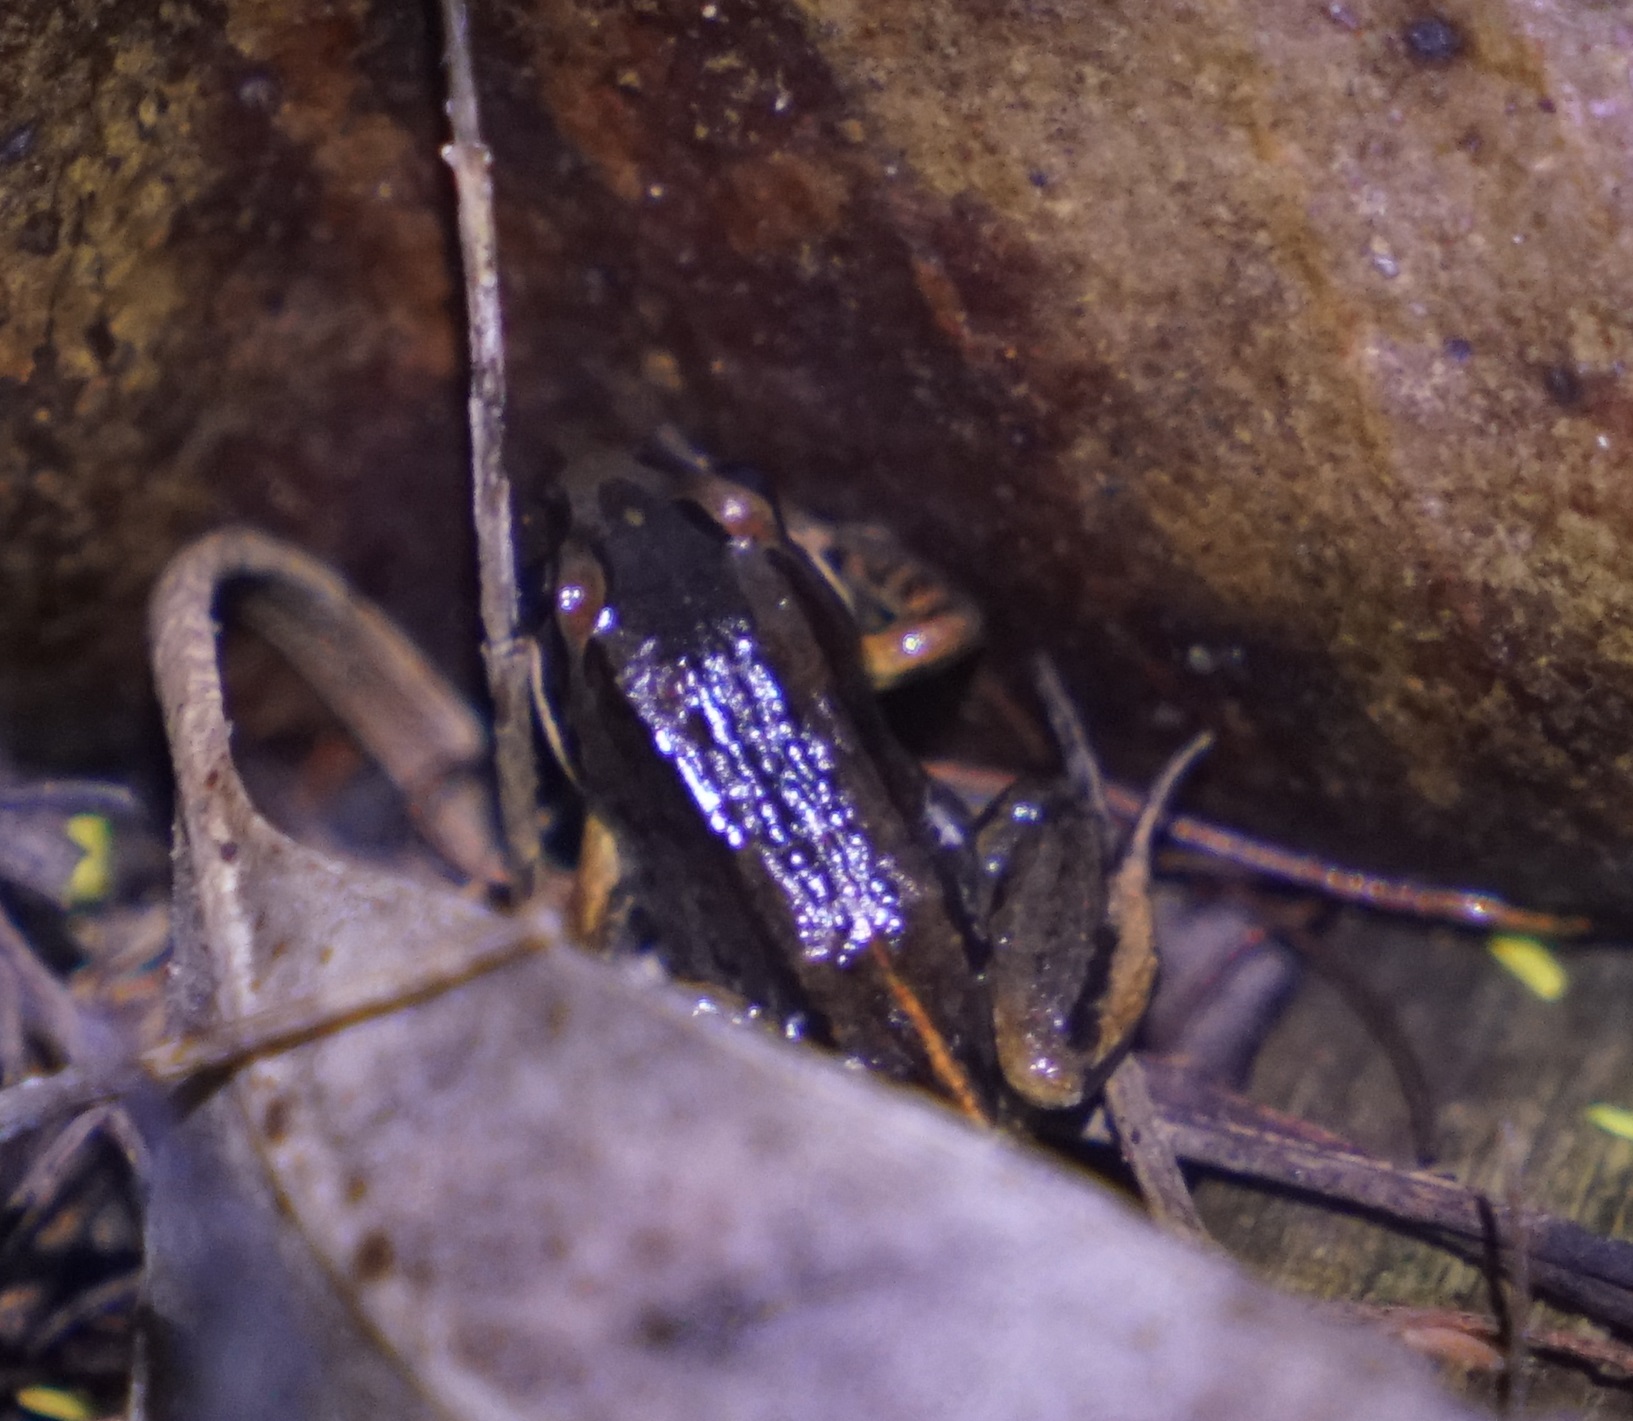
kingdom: Animalia
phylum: Chordata
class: Amphibia
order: Anura
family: Limnodynastidae
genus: Limnodynastes
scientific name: Limnodynastes peronii
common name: Brown frog
